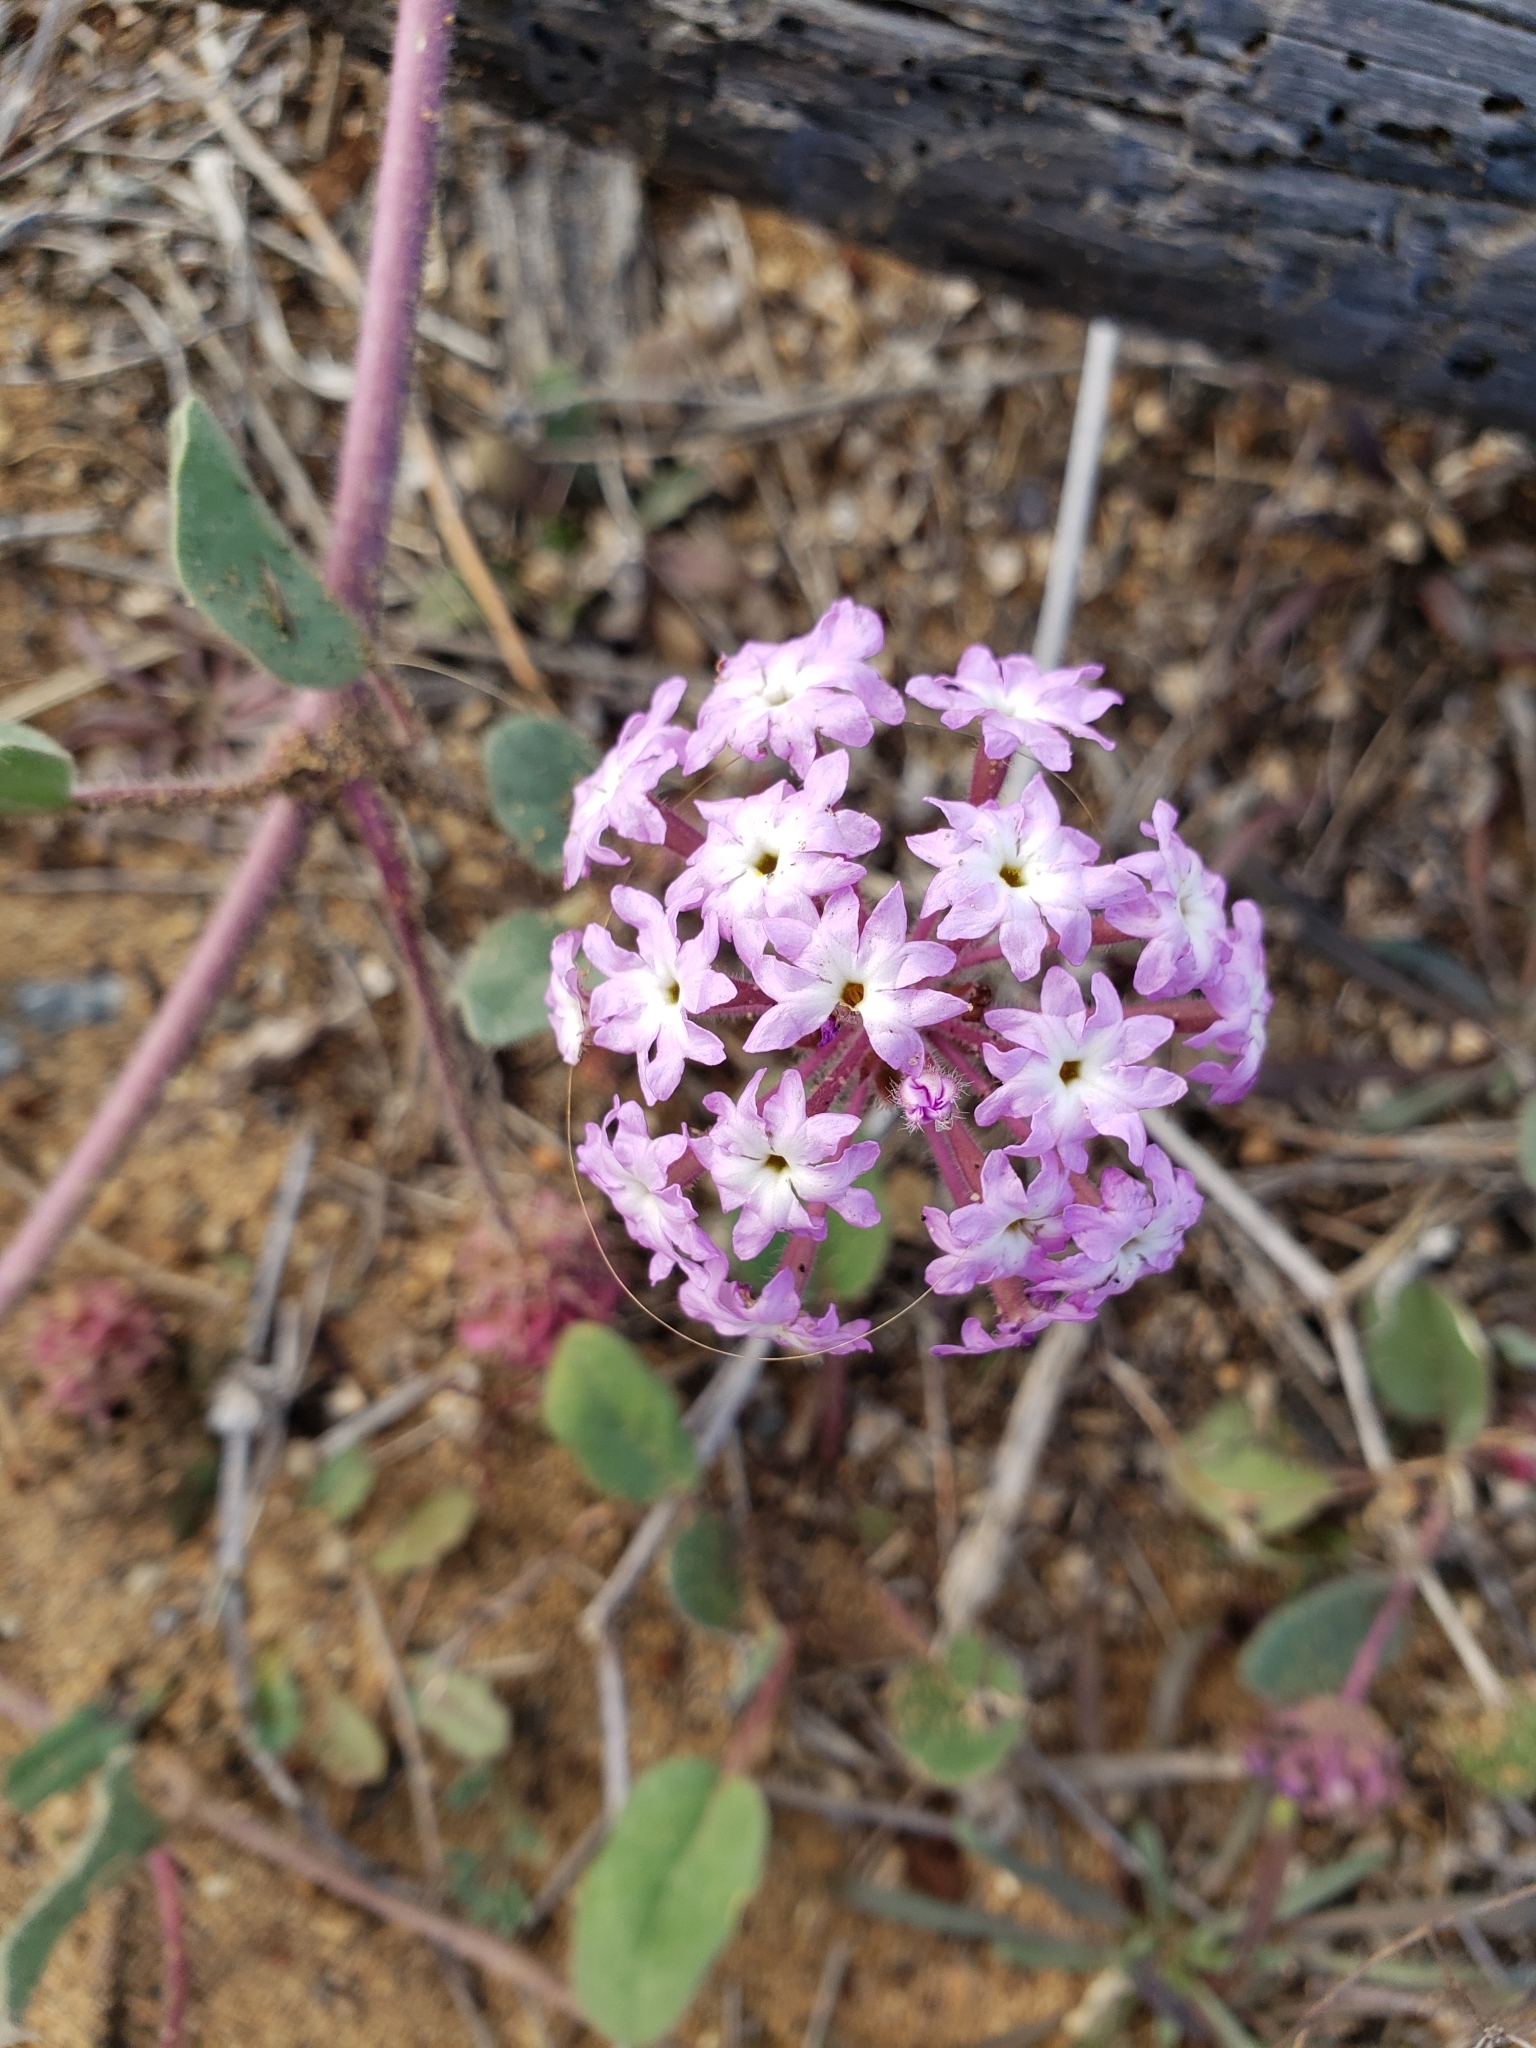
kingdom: Plantae
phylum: Tracheophyta
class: Magnoliopsida
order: Caryophyllales
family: Nyctaginaceae
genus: Abronia
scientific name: Abronia umbellata
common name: Sand-verbena
